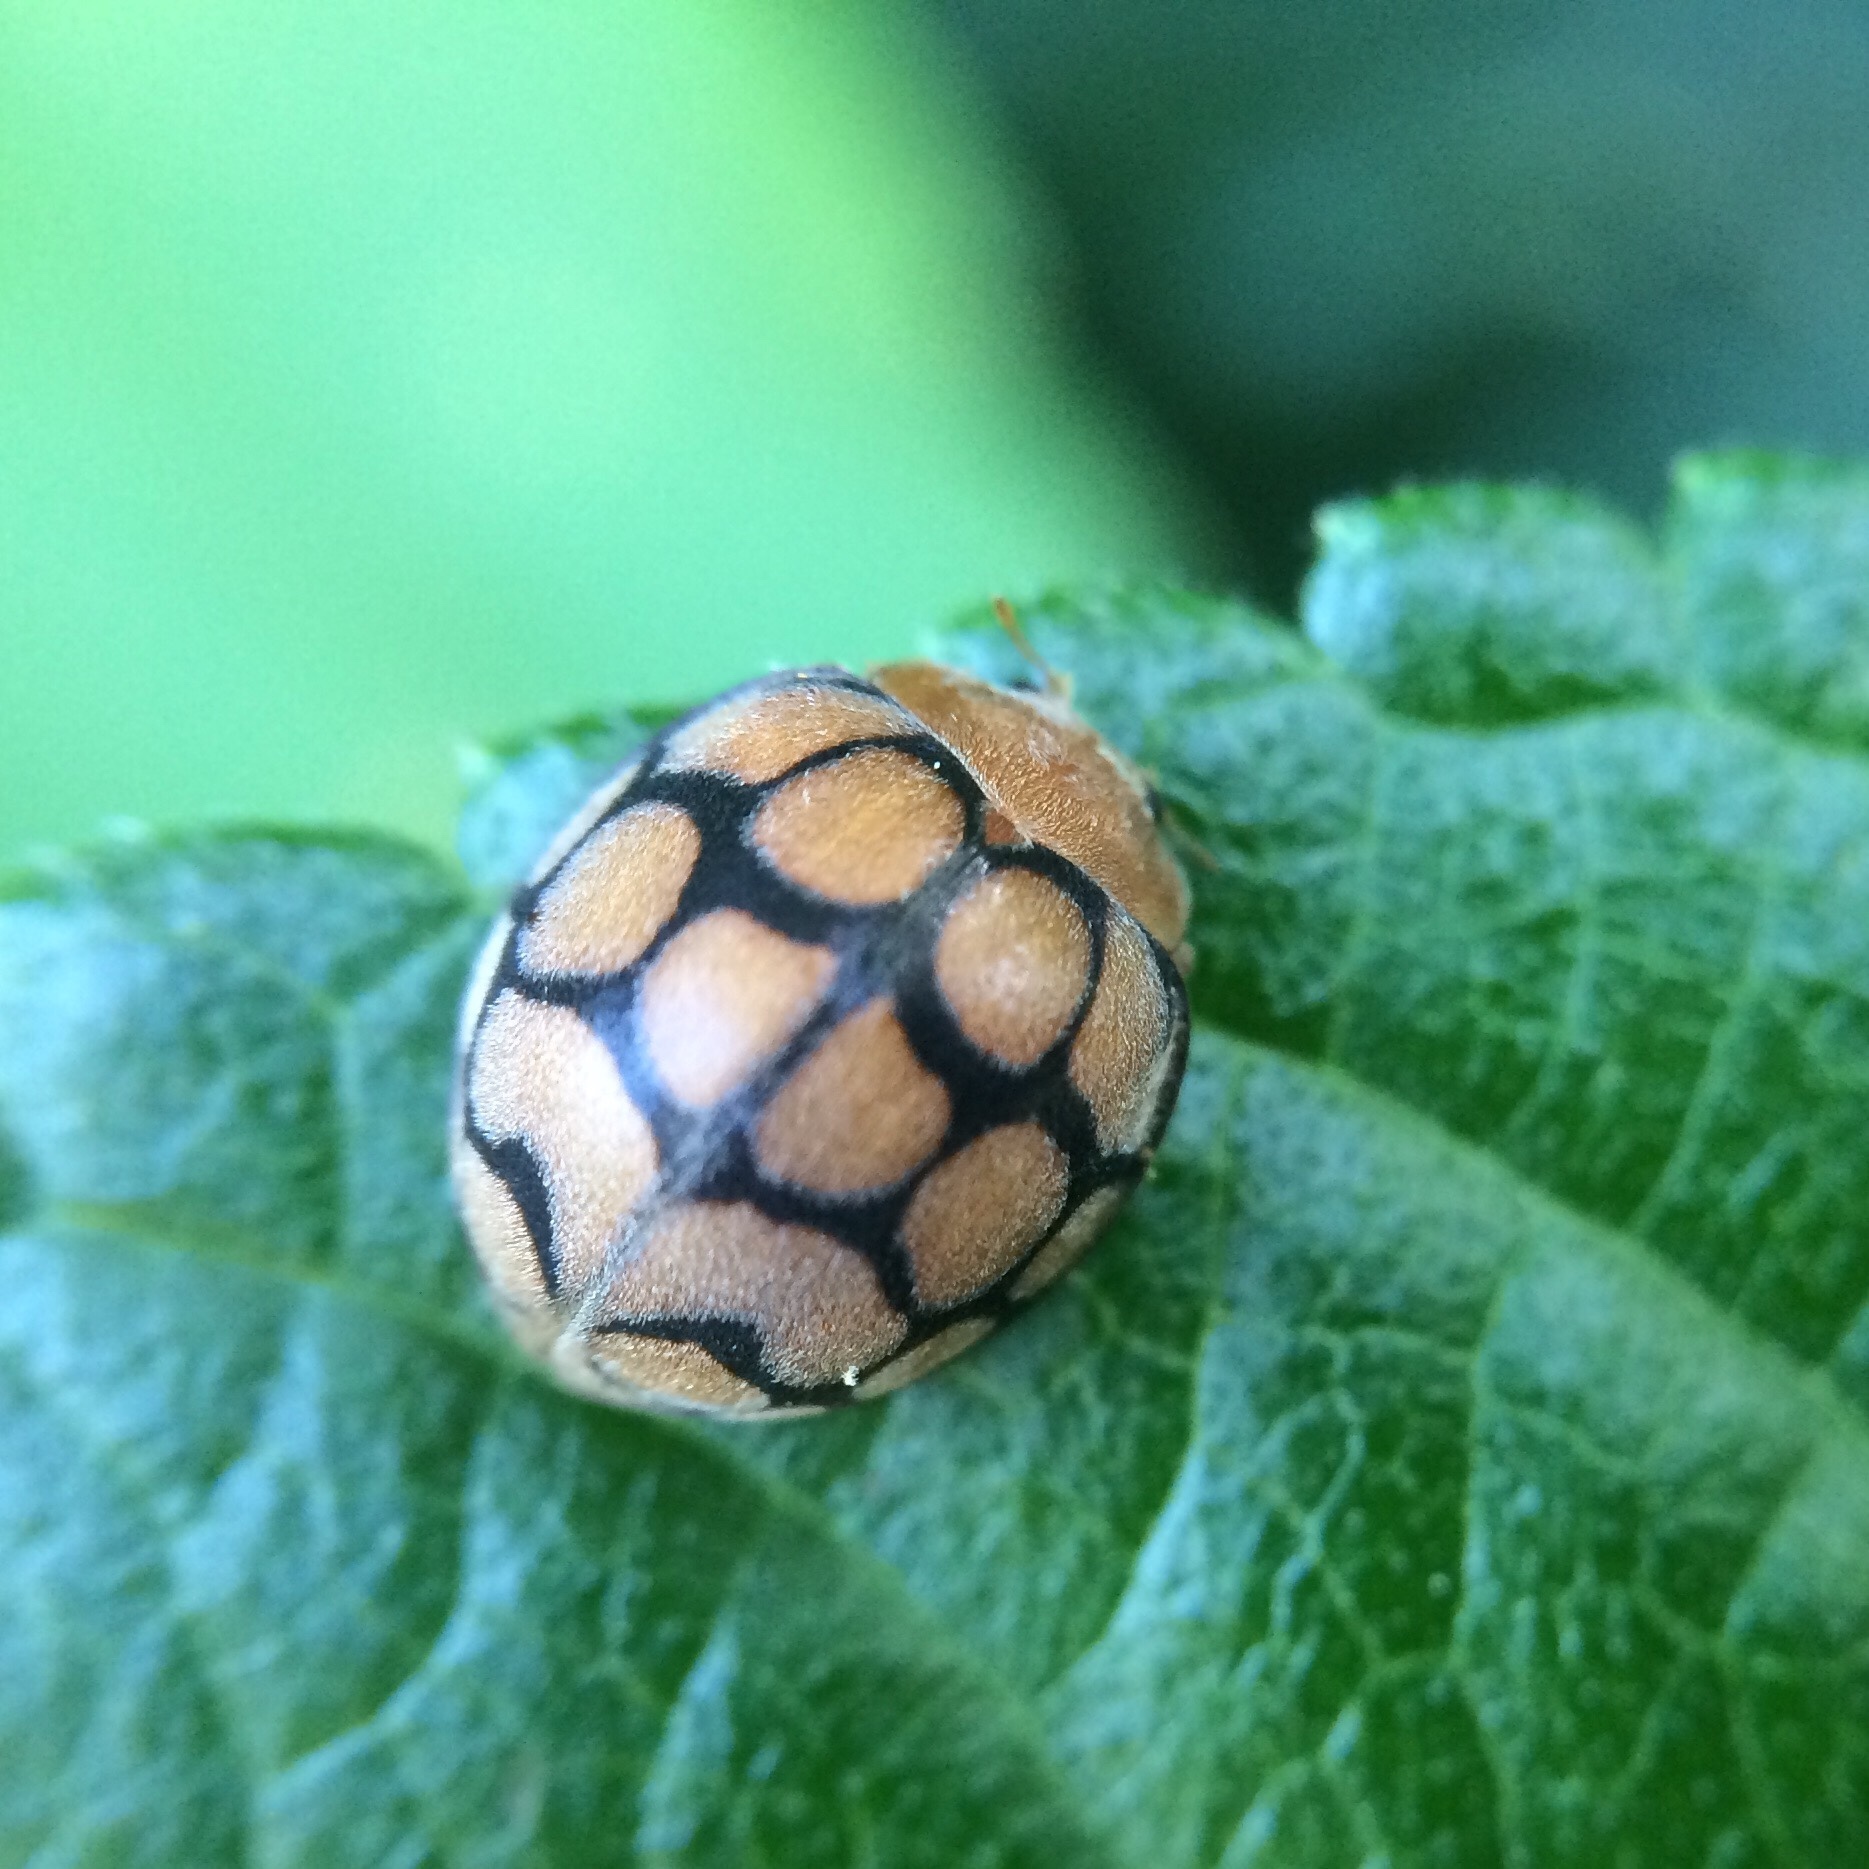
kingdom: Animalia
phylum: Arthropoda
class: Insecta
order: Coleoptera
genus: Solanophila
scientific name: Solanophila
